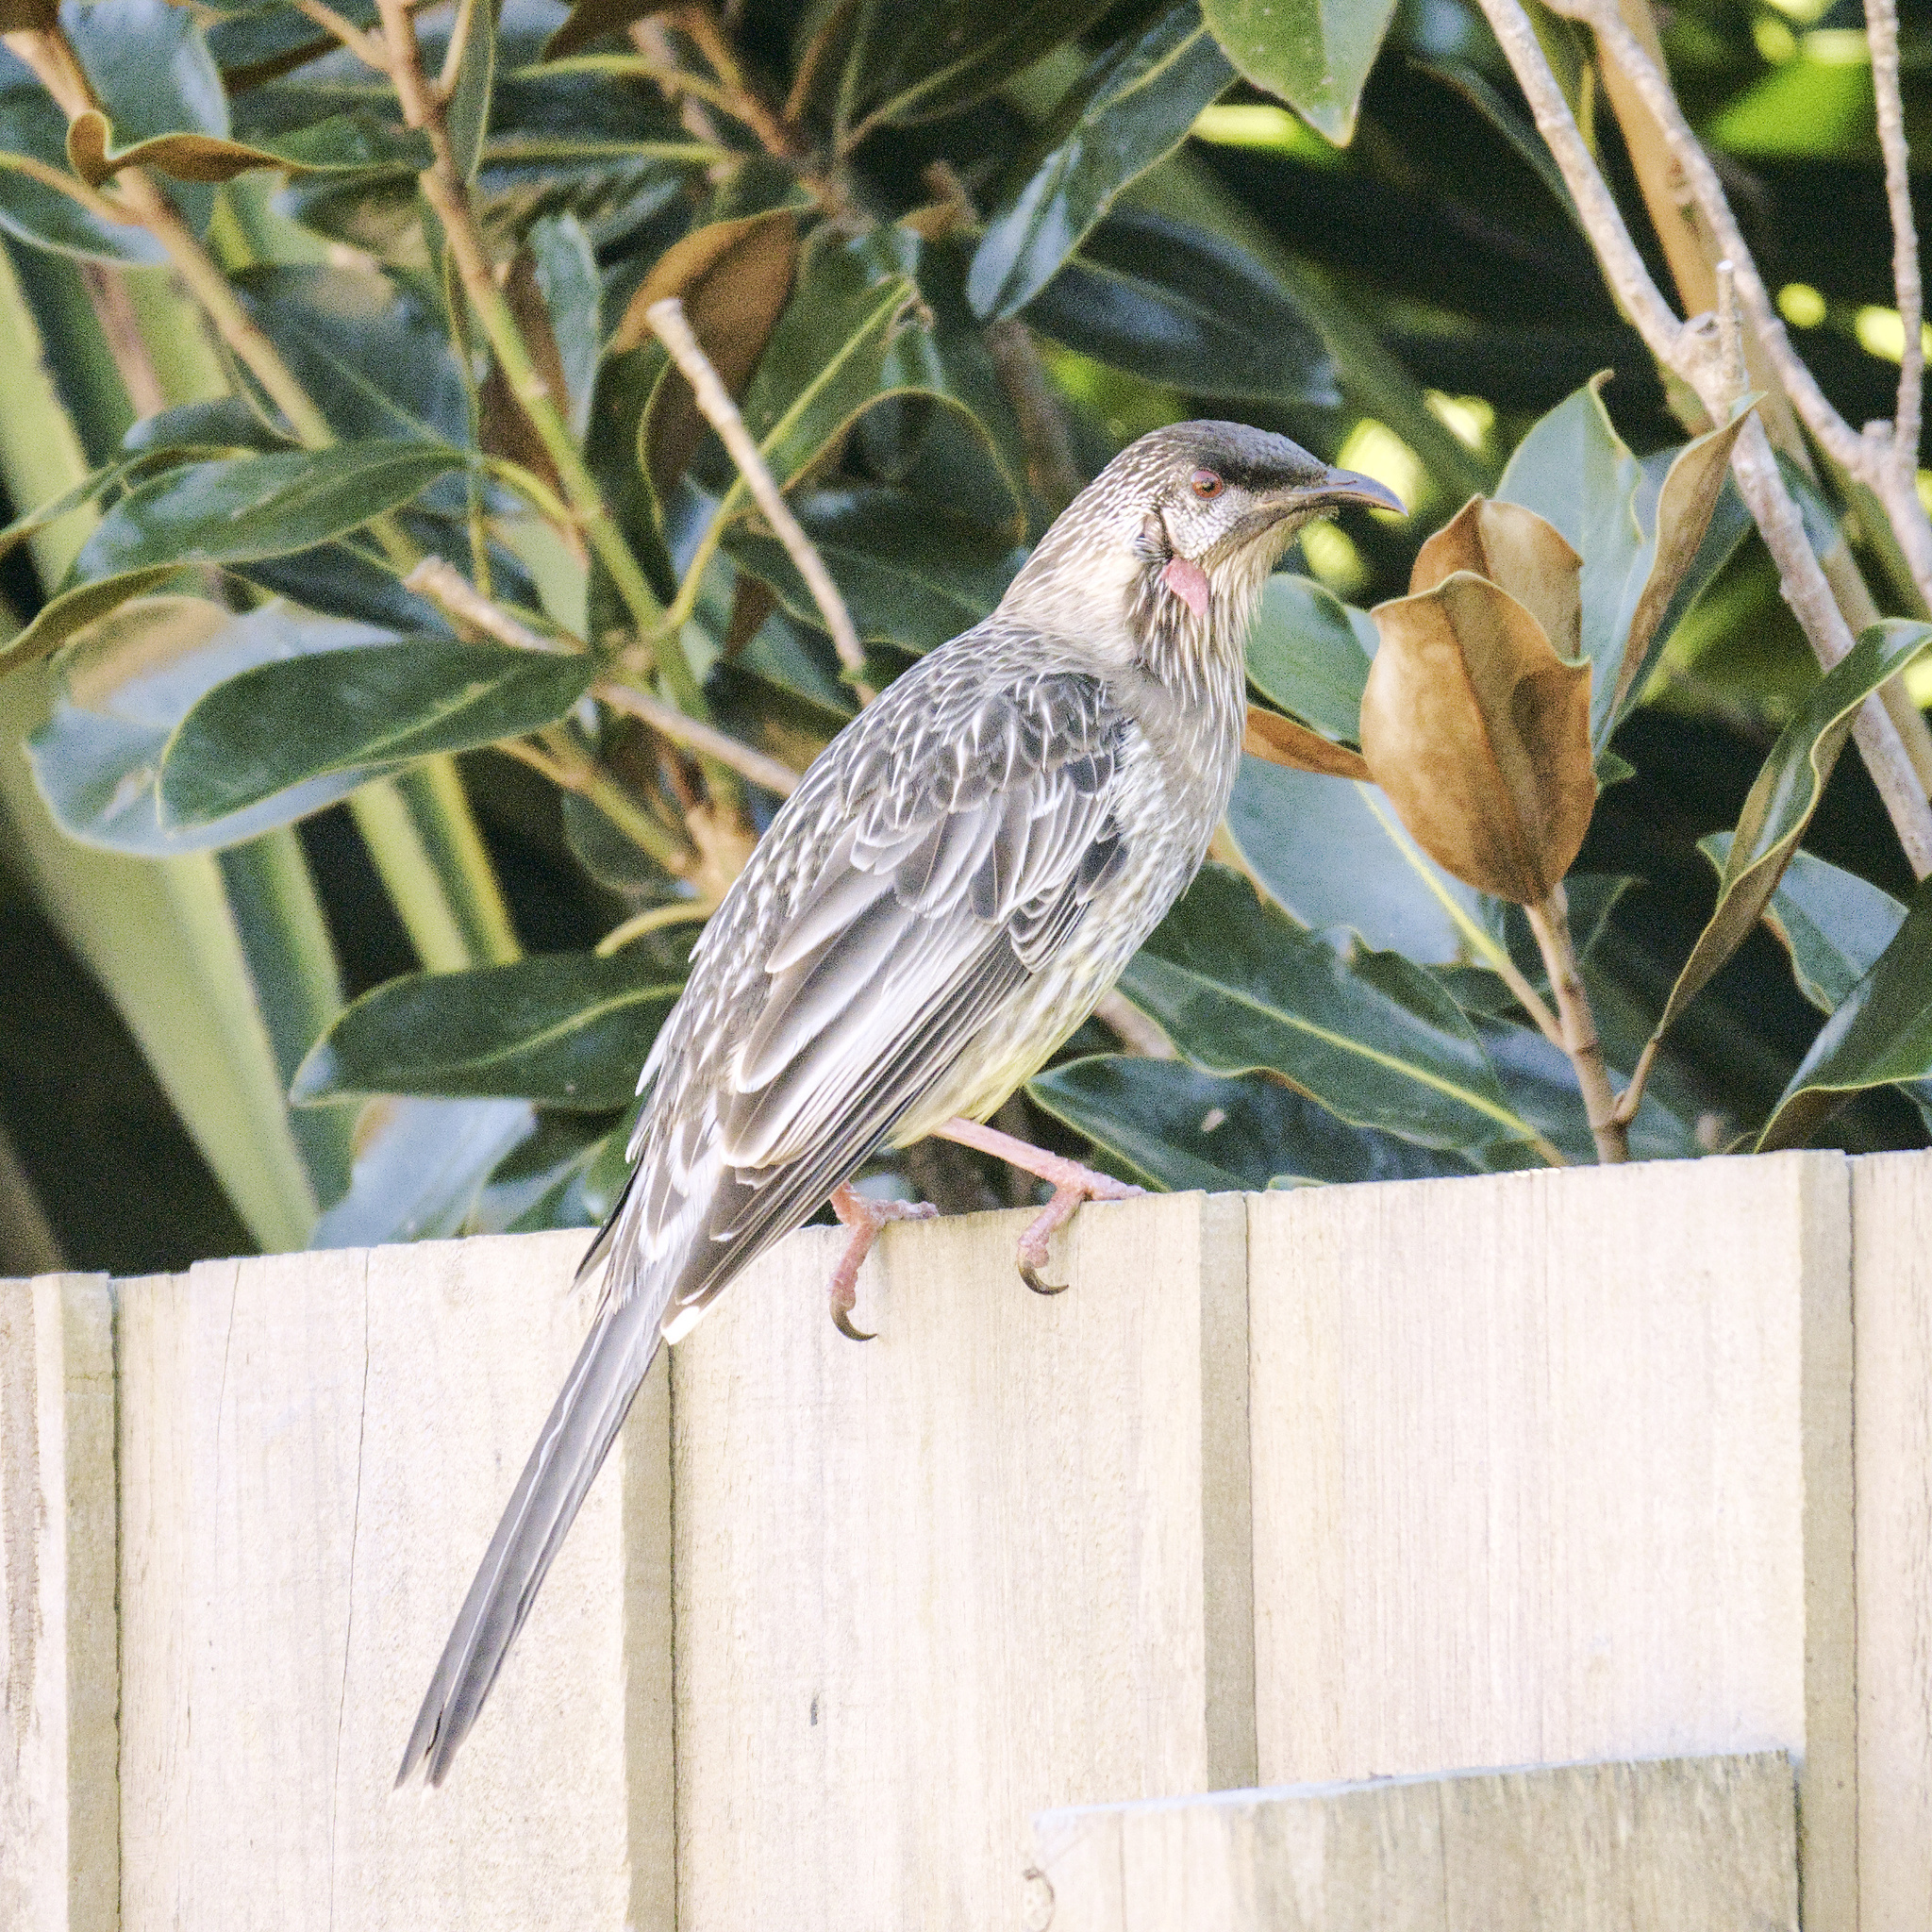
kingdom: Animalia
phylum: Chordata
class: Aves
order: Passeriformes
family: Meliphagidae
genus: Anthochaera
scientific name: Anthochaera carunculata
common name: Red wattlebird
